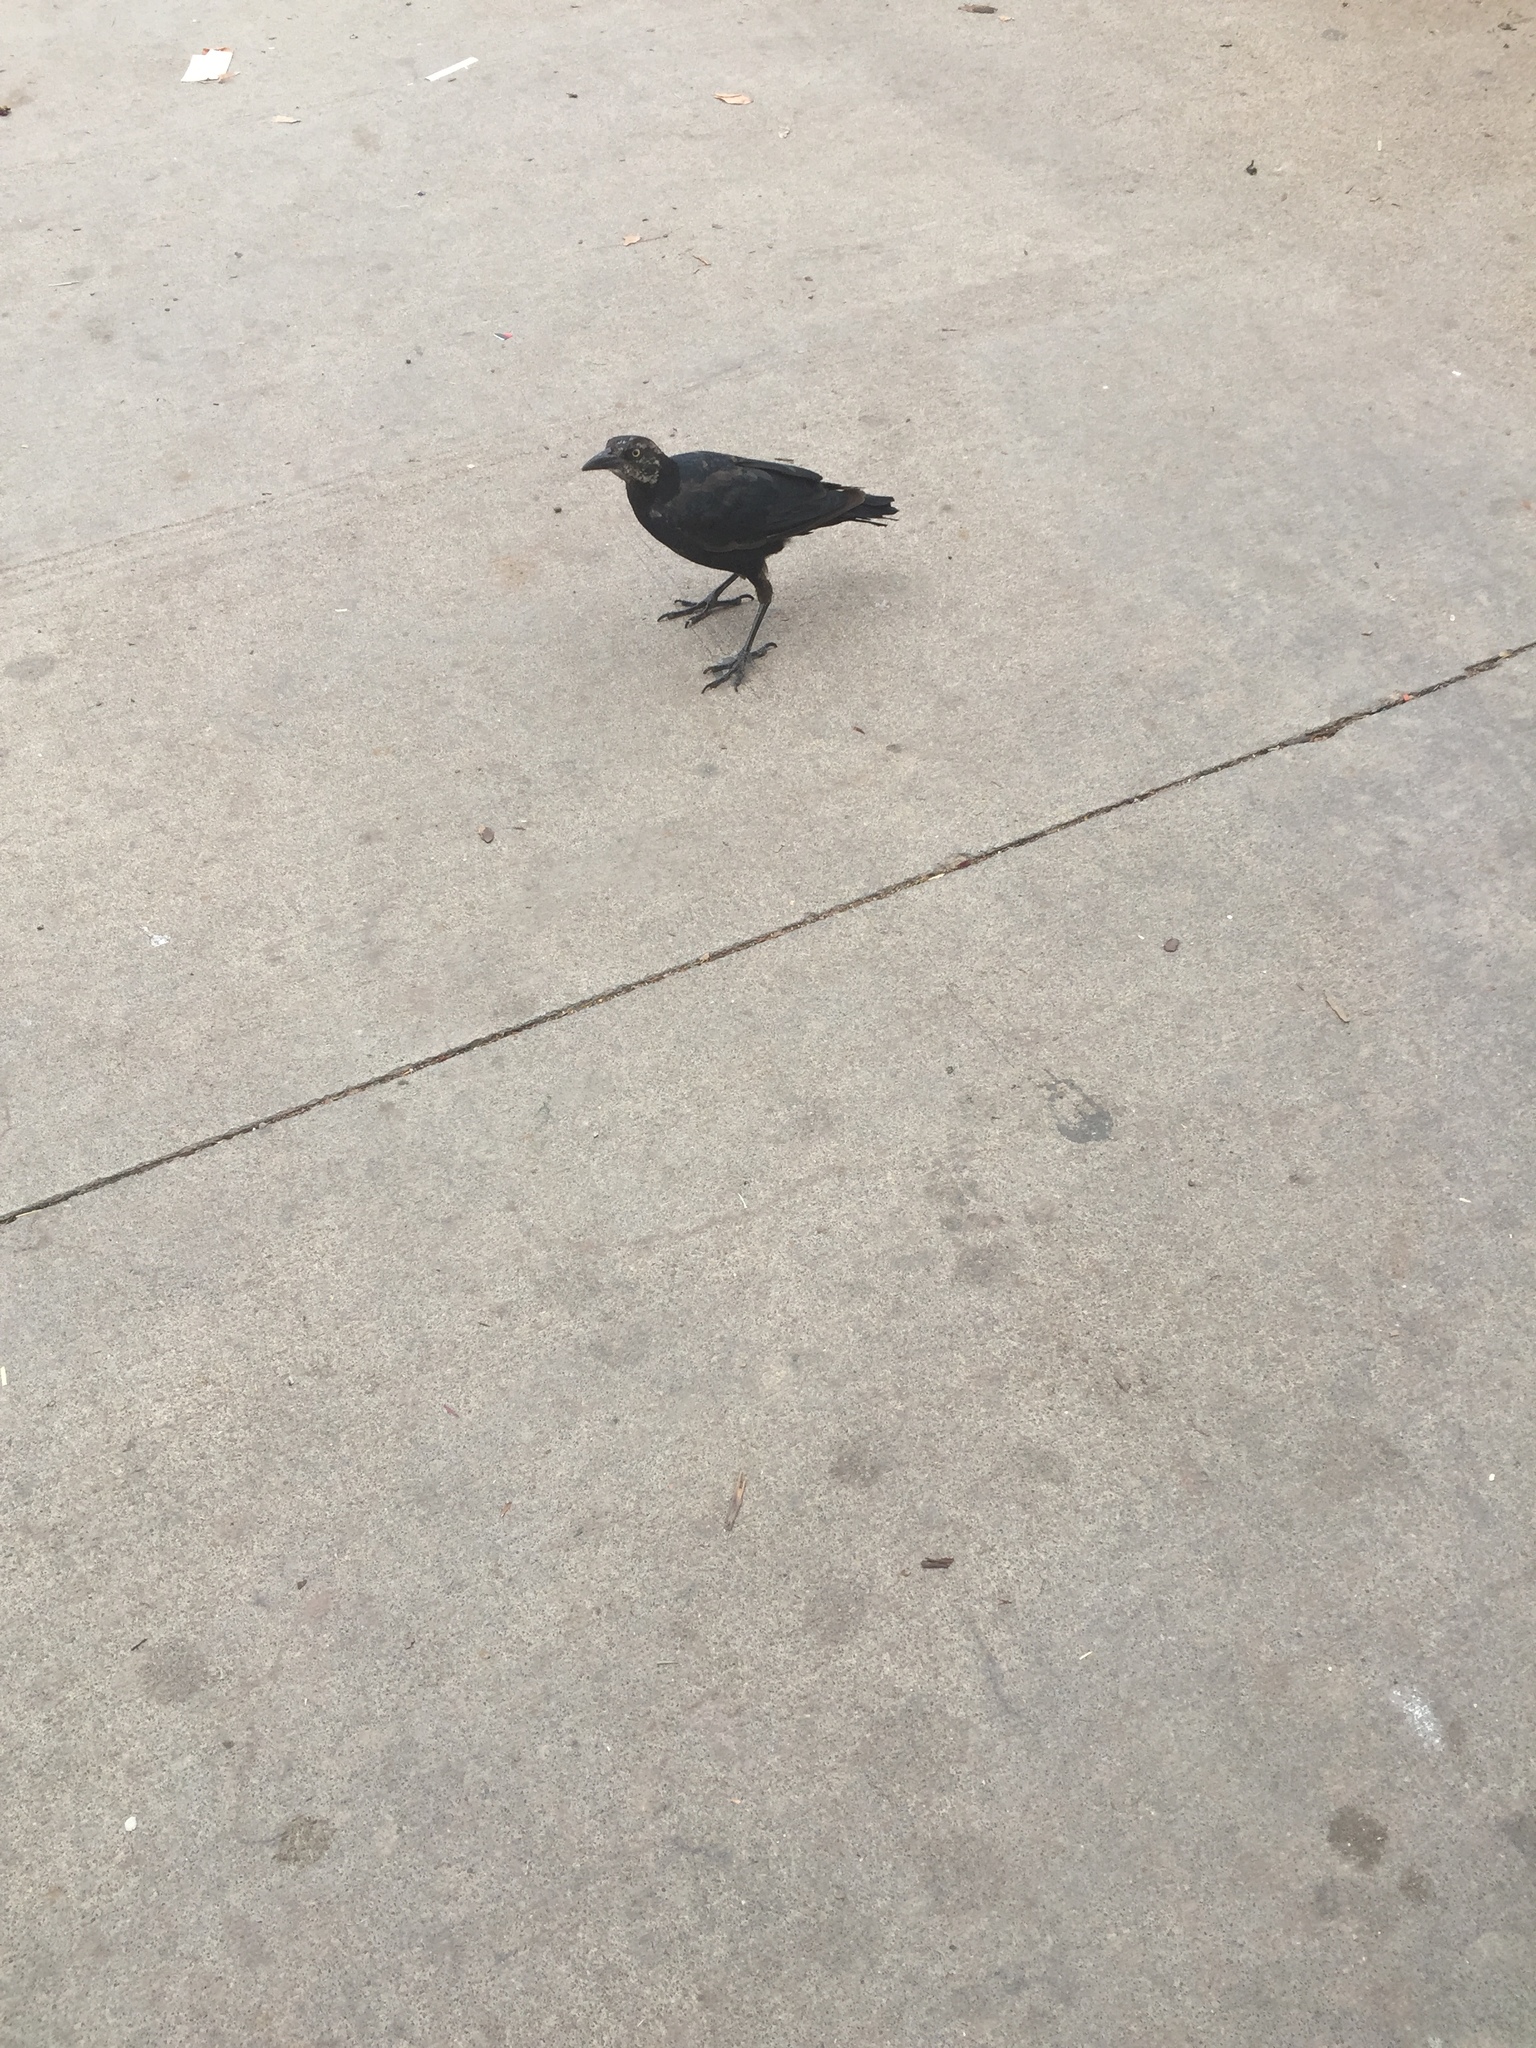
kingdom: Animalia
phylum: Chordata
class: Aves
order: Passeriformes
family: Icteridae
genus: Quiscalus
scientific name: Quiscalus mexicanus
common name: Great-tailed grackle
